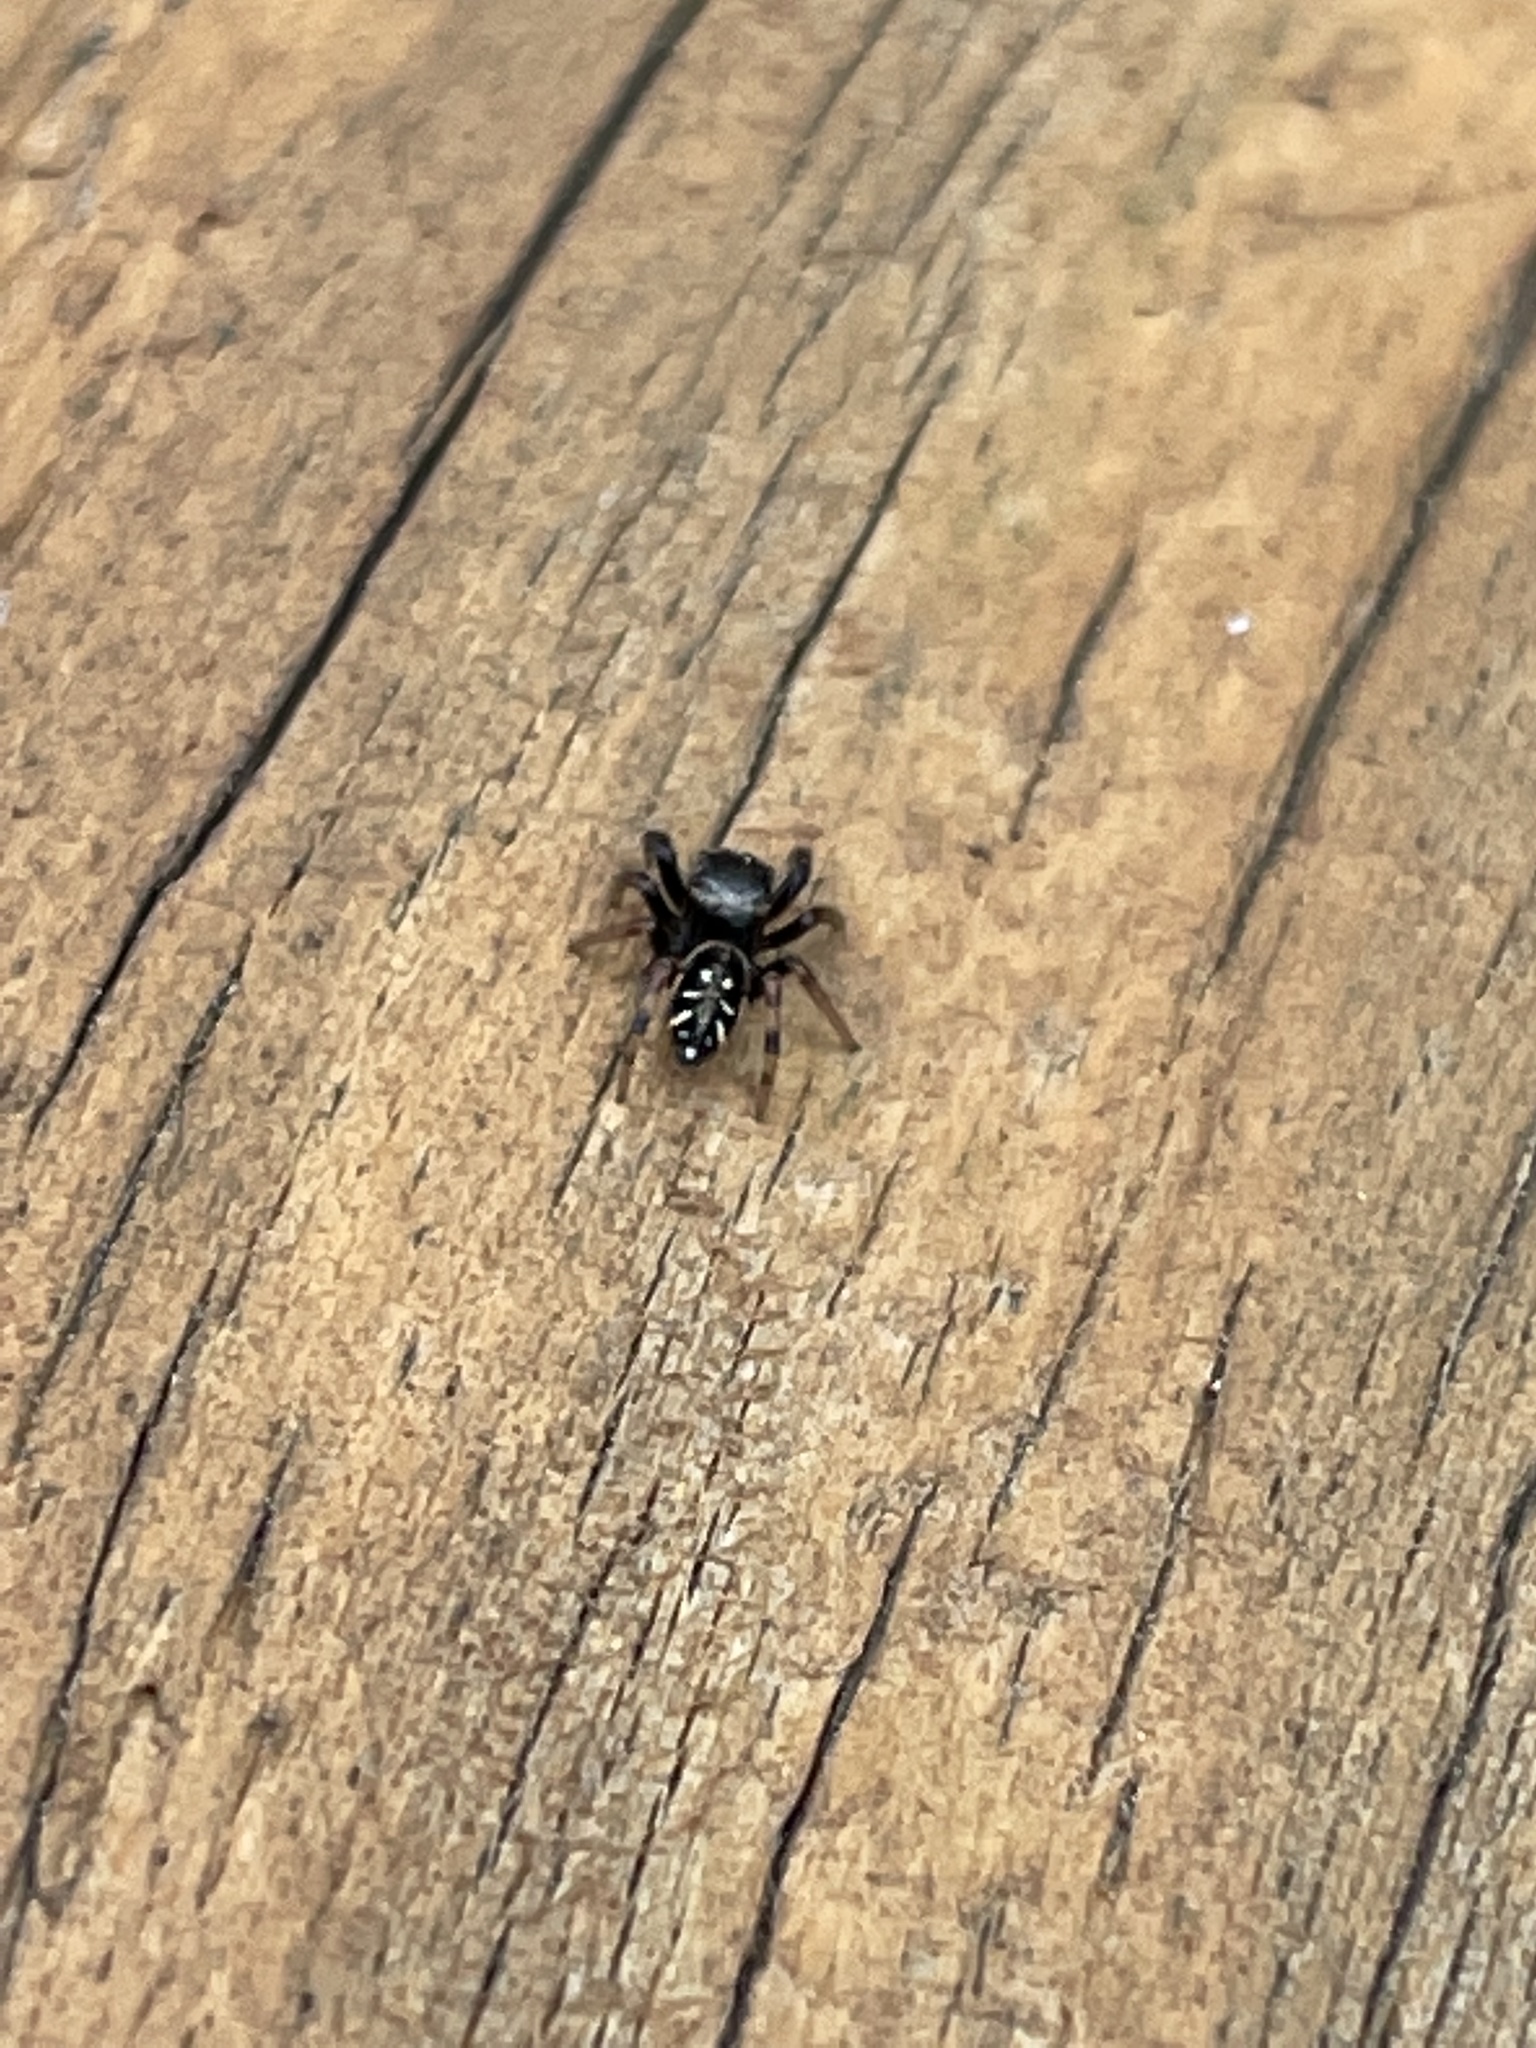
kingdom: Animalia
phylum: Arthropoda
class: Arachnida
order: Araneae
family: Salticidae
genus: Paraphidippus
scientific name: Paraphidippus aurantius
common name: Jumping spiders
